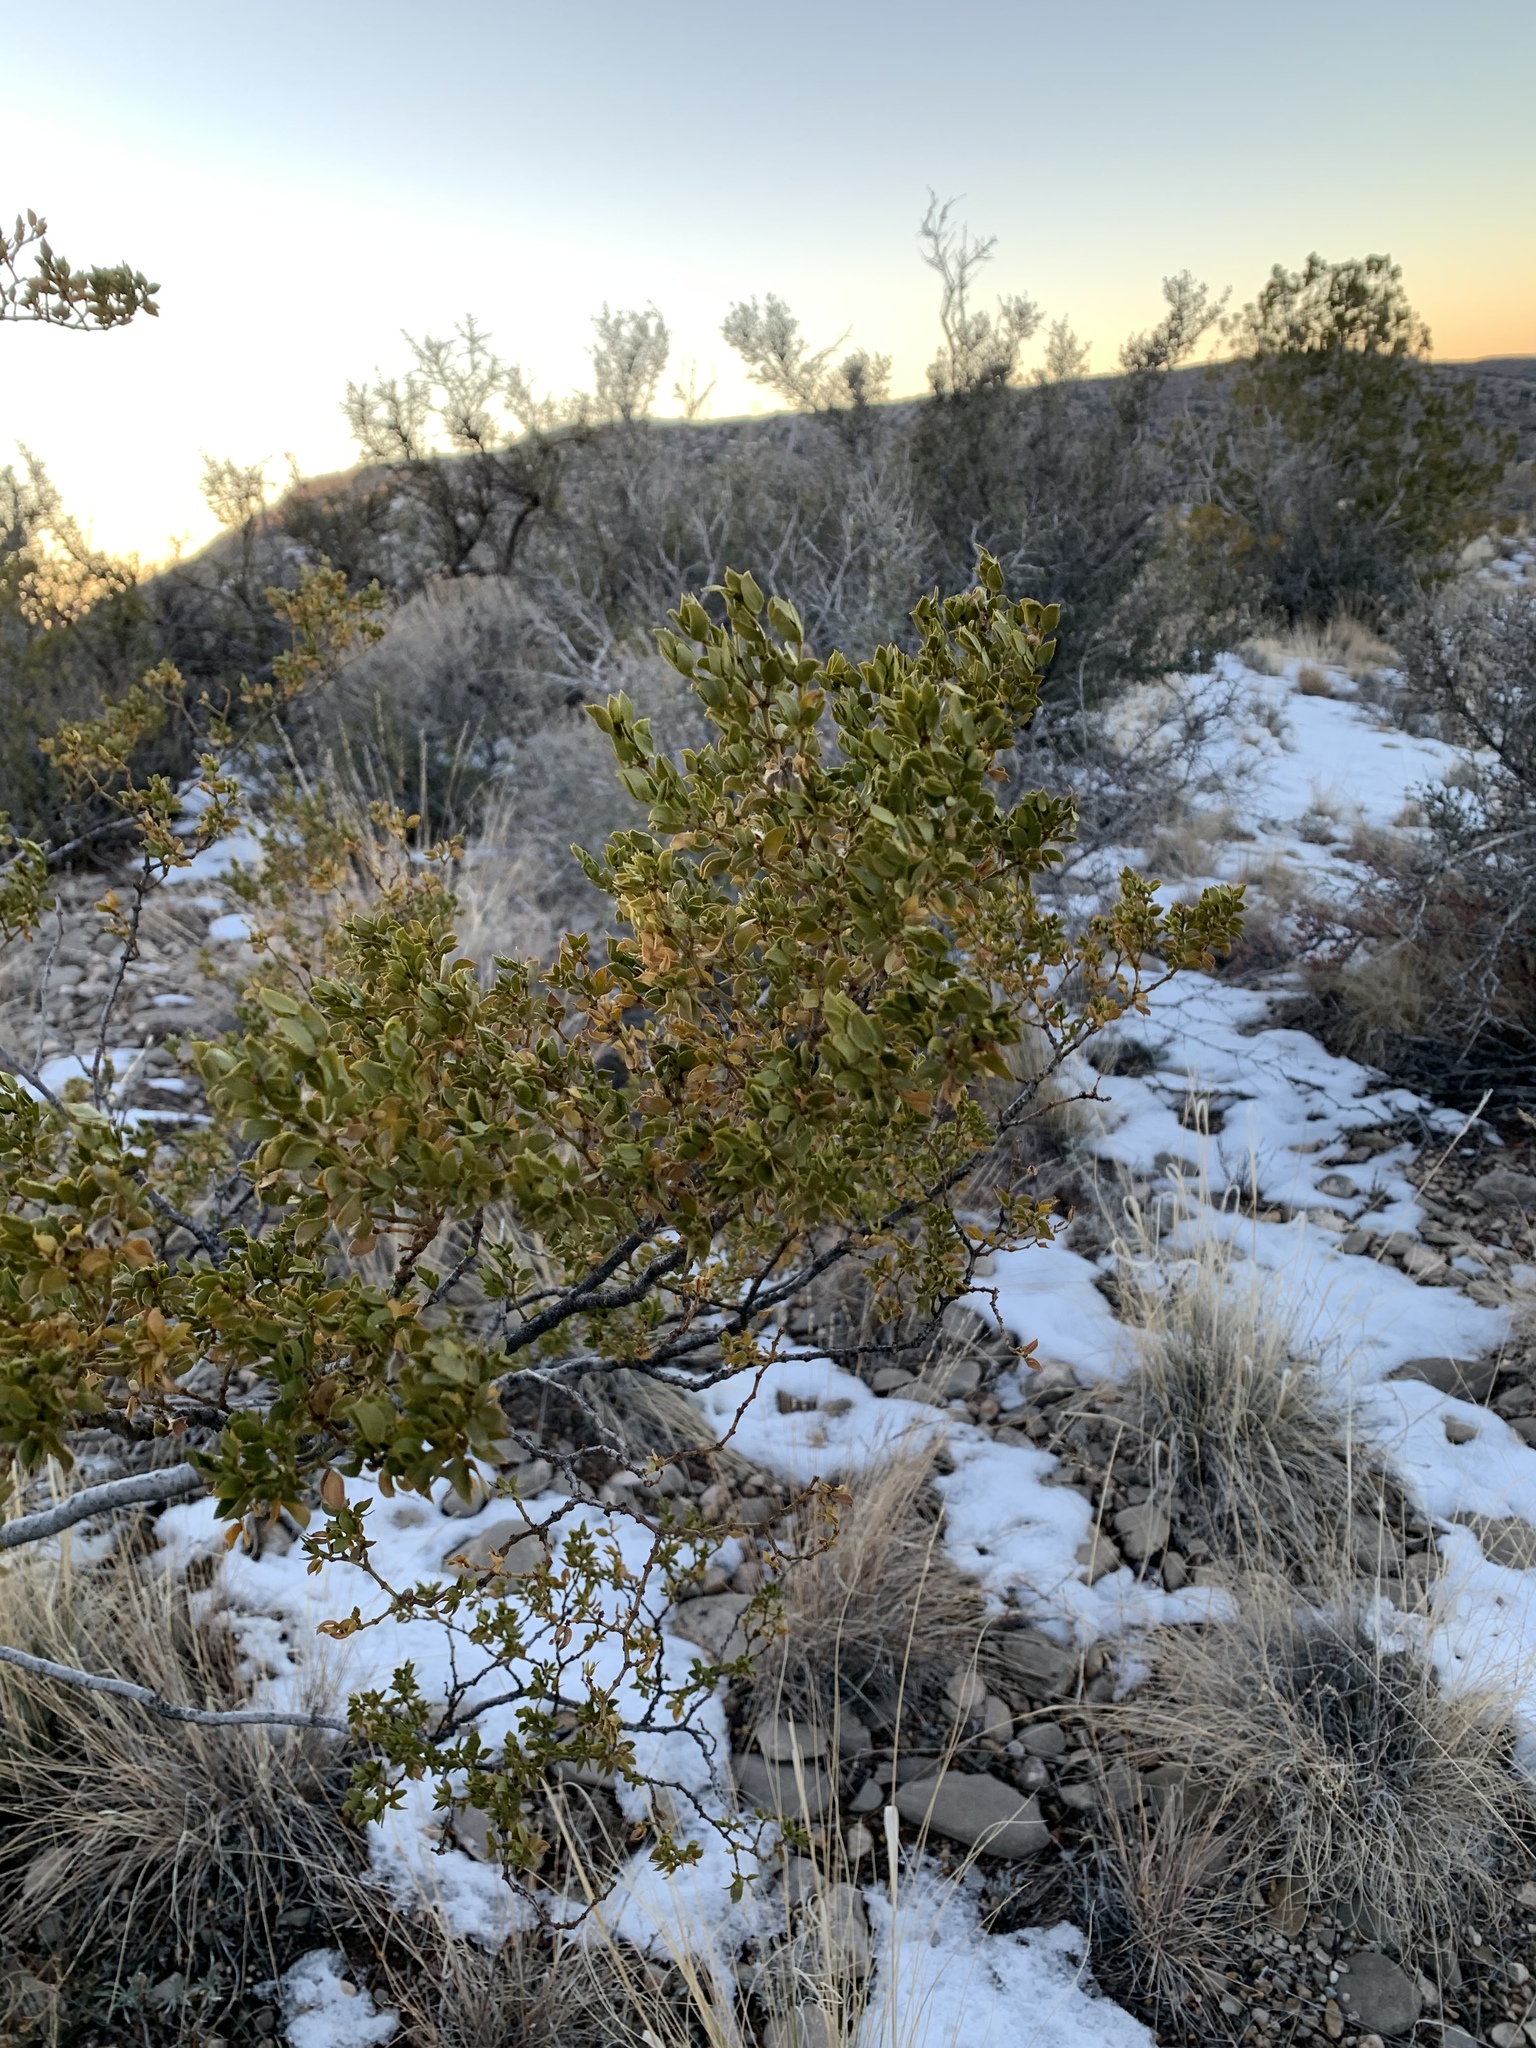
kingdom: Plantae
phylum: Tracheophyta
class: Magnoliopsida
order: Zygophyllales
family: Zygophyllaceae
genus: Larrea
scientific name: Larrea tridentata
